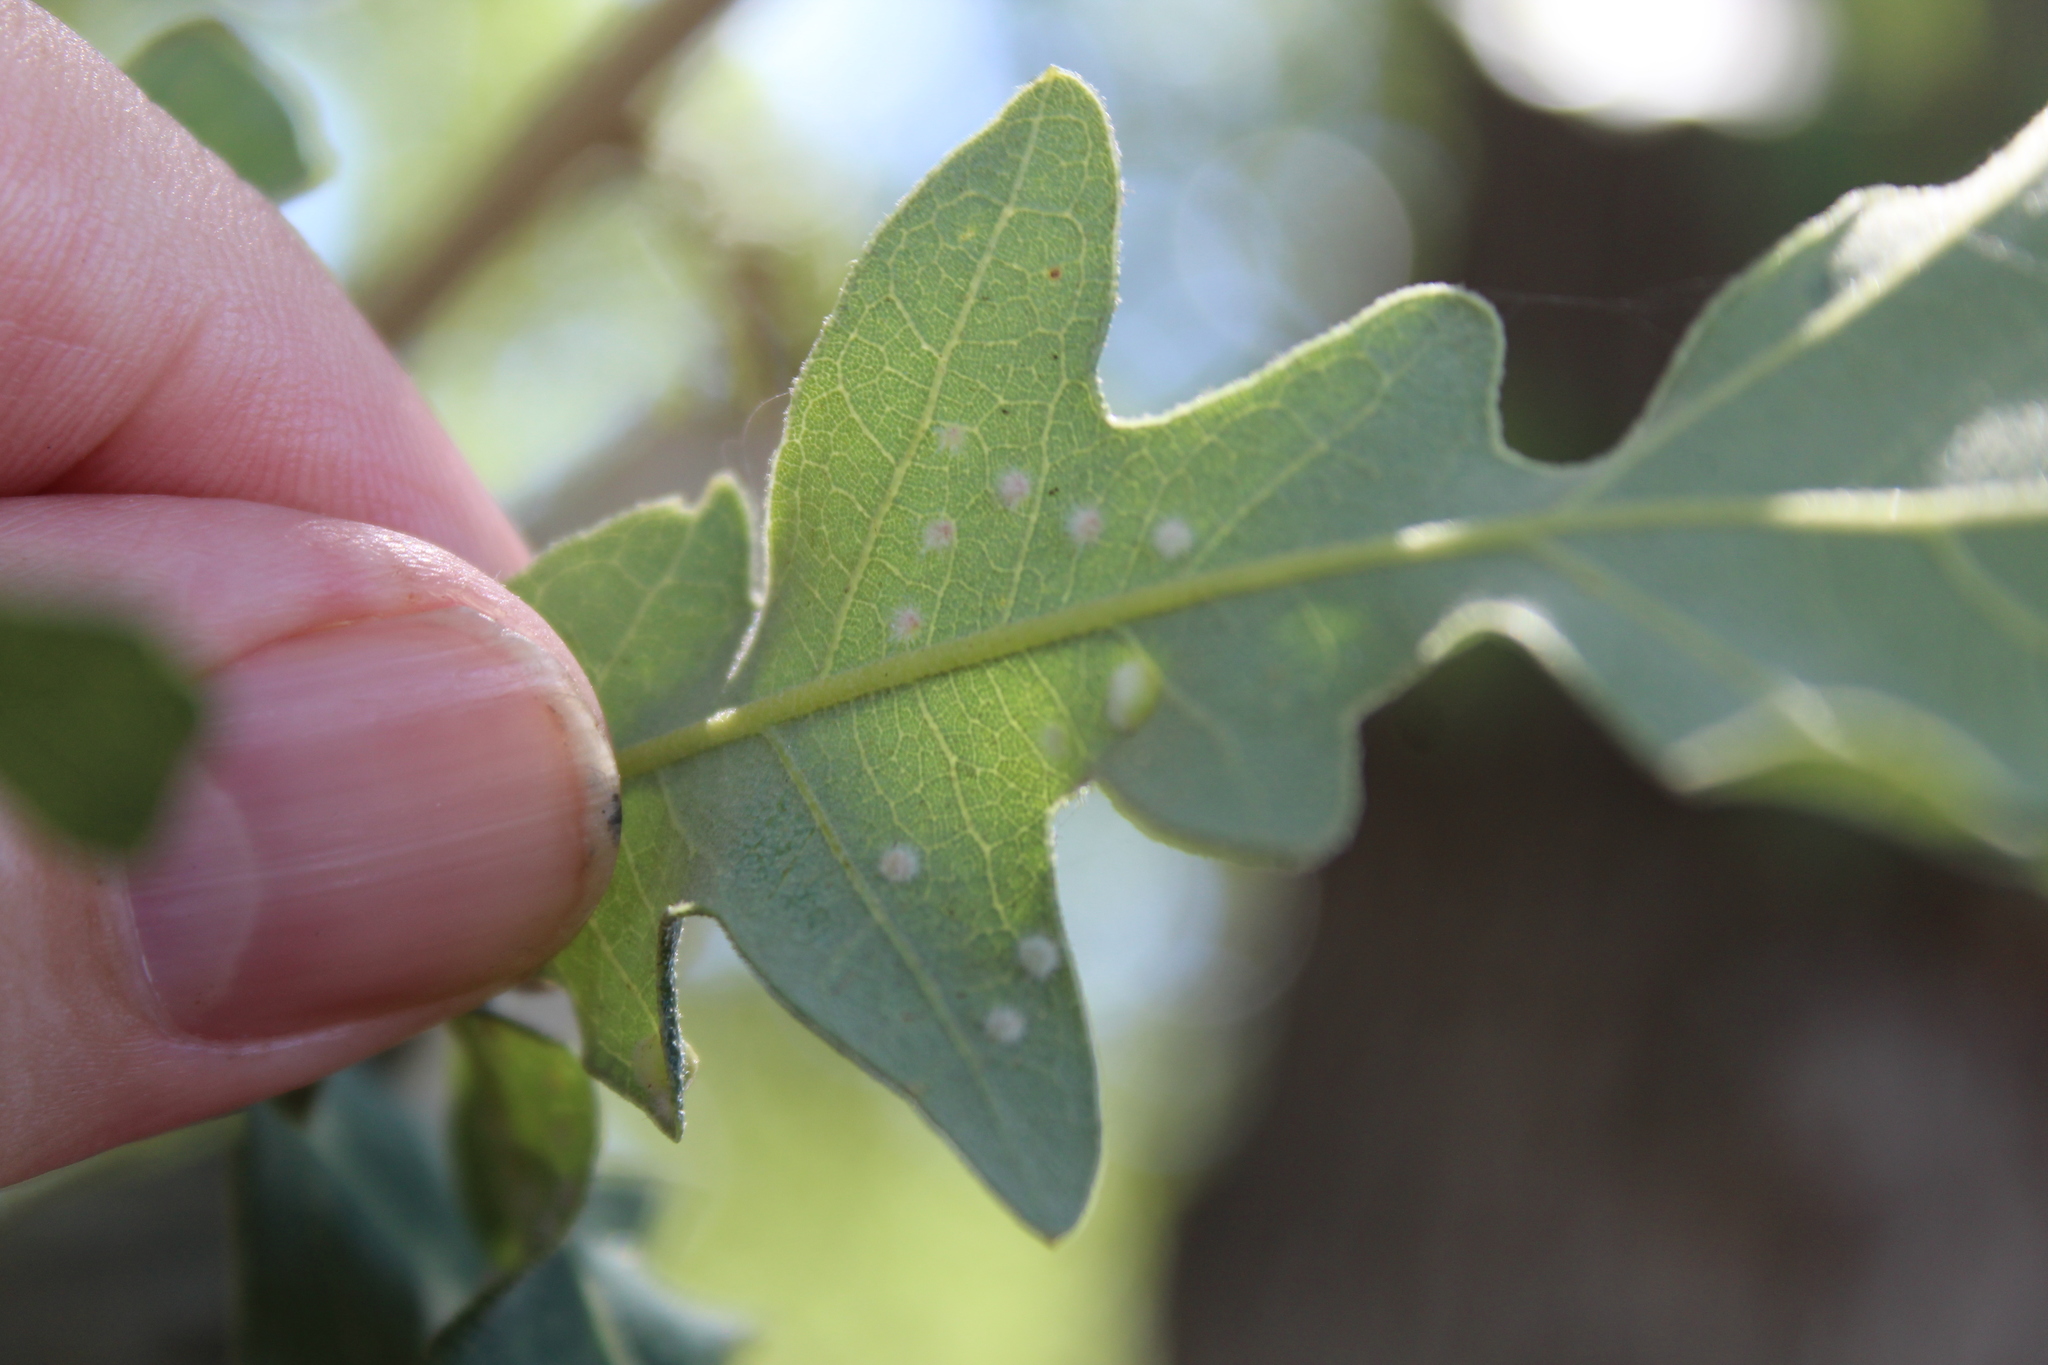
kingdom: Animalia
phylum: Arthropoda
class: Insecta
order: Hymenoptera
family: Cynipidae
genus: Neuroterus
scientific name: Neuroterus quercusverrucarum
